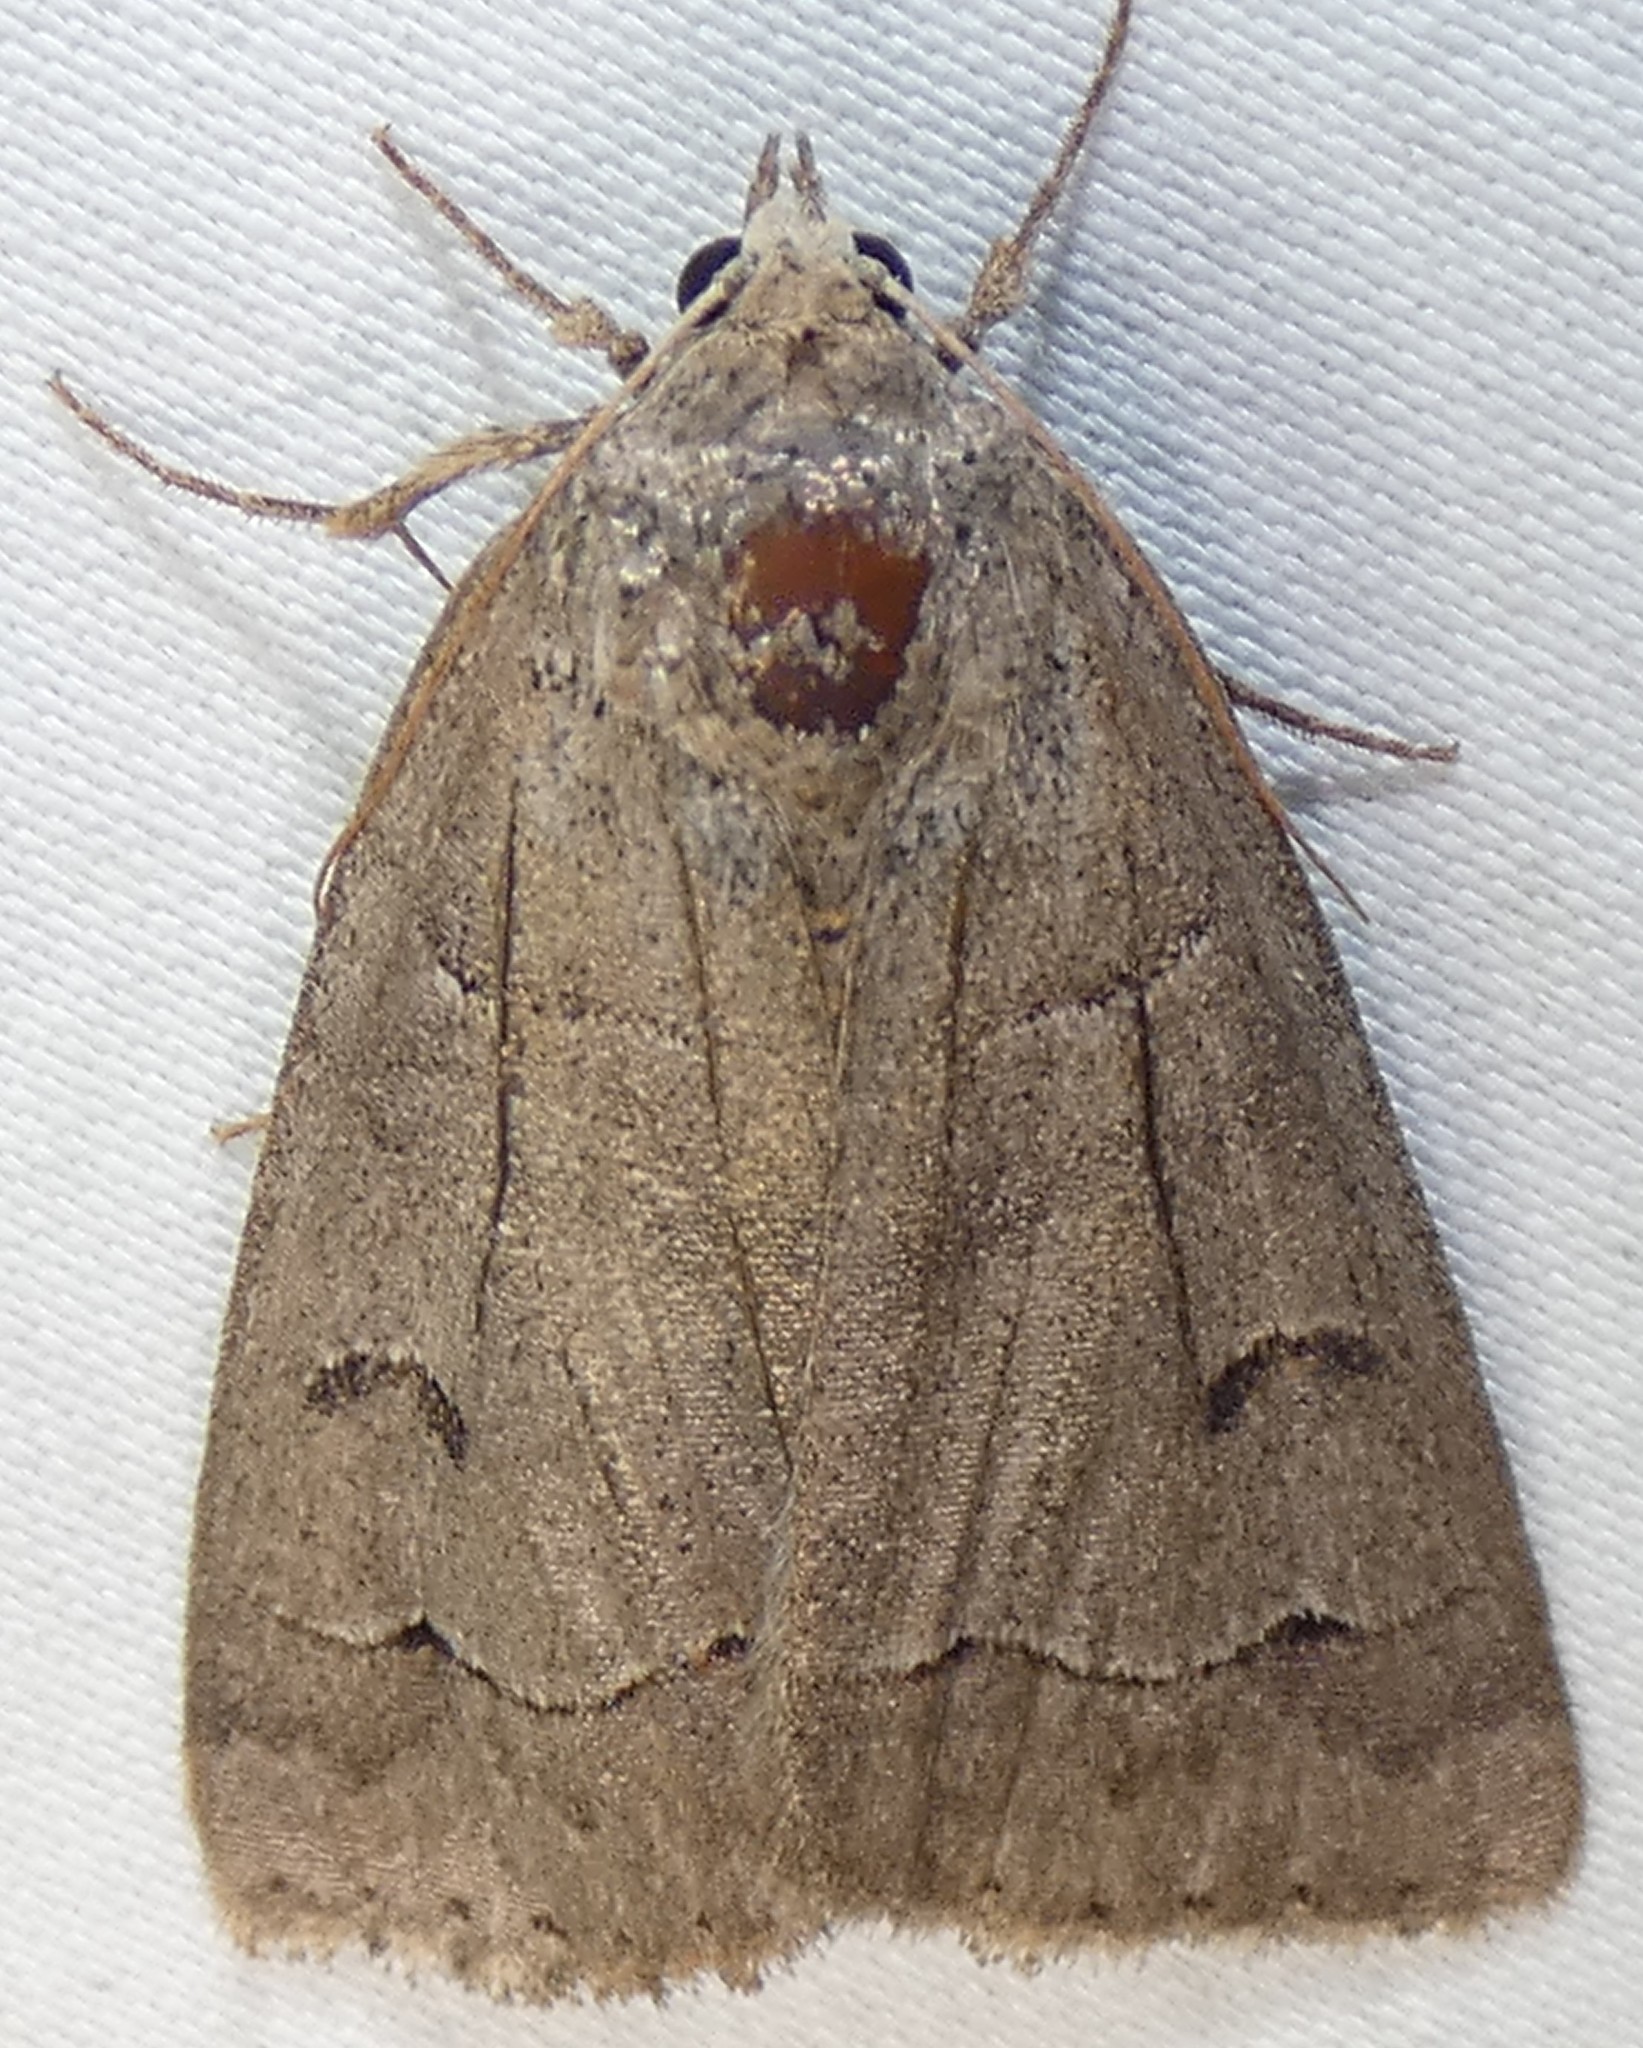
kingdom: Animalia
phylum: Arthropoda
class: Insecta
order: Lepidoptera
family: Erebidae
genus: Phoberia
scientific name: Phoberia atomaris
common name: Common oak moth
